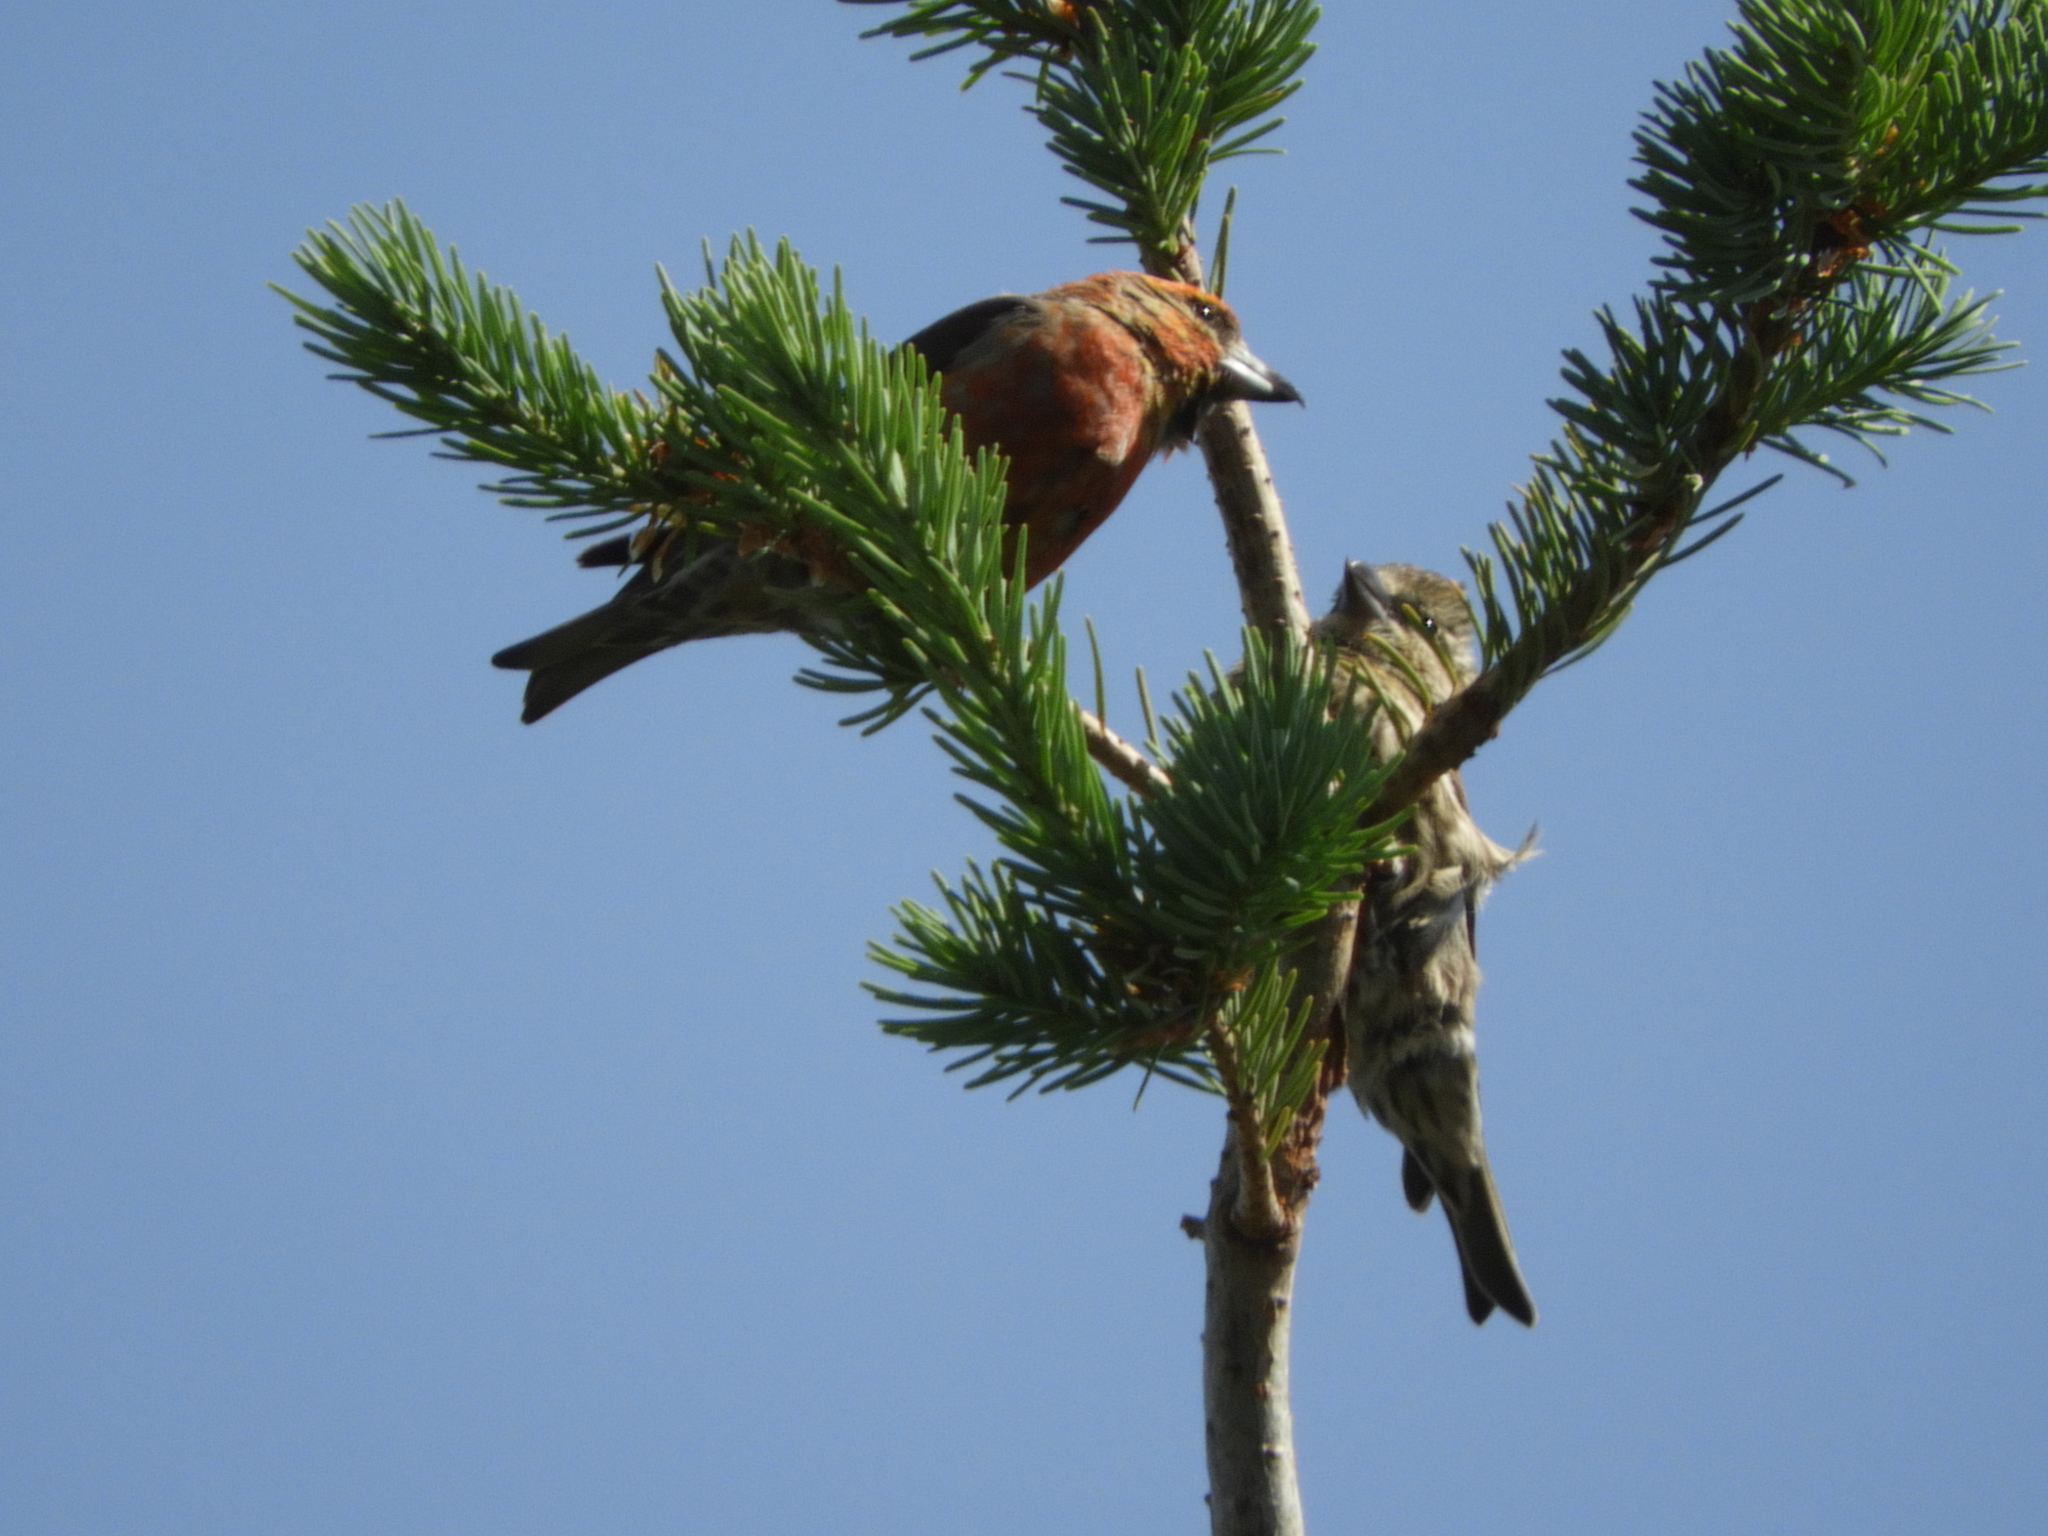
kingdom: Animalia
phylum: Chordata
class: Aves
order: Passeriformes
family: Fringillidae
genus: Loxia
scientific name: Loxia curvirostra
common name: Red crossbill
